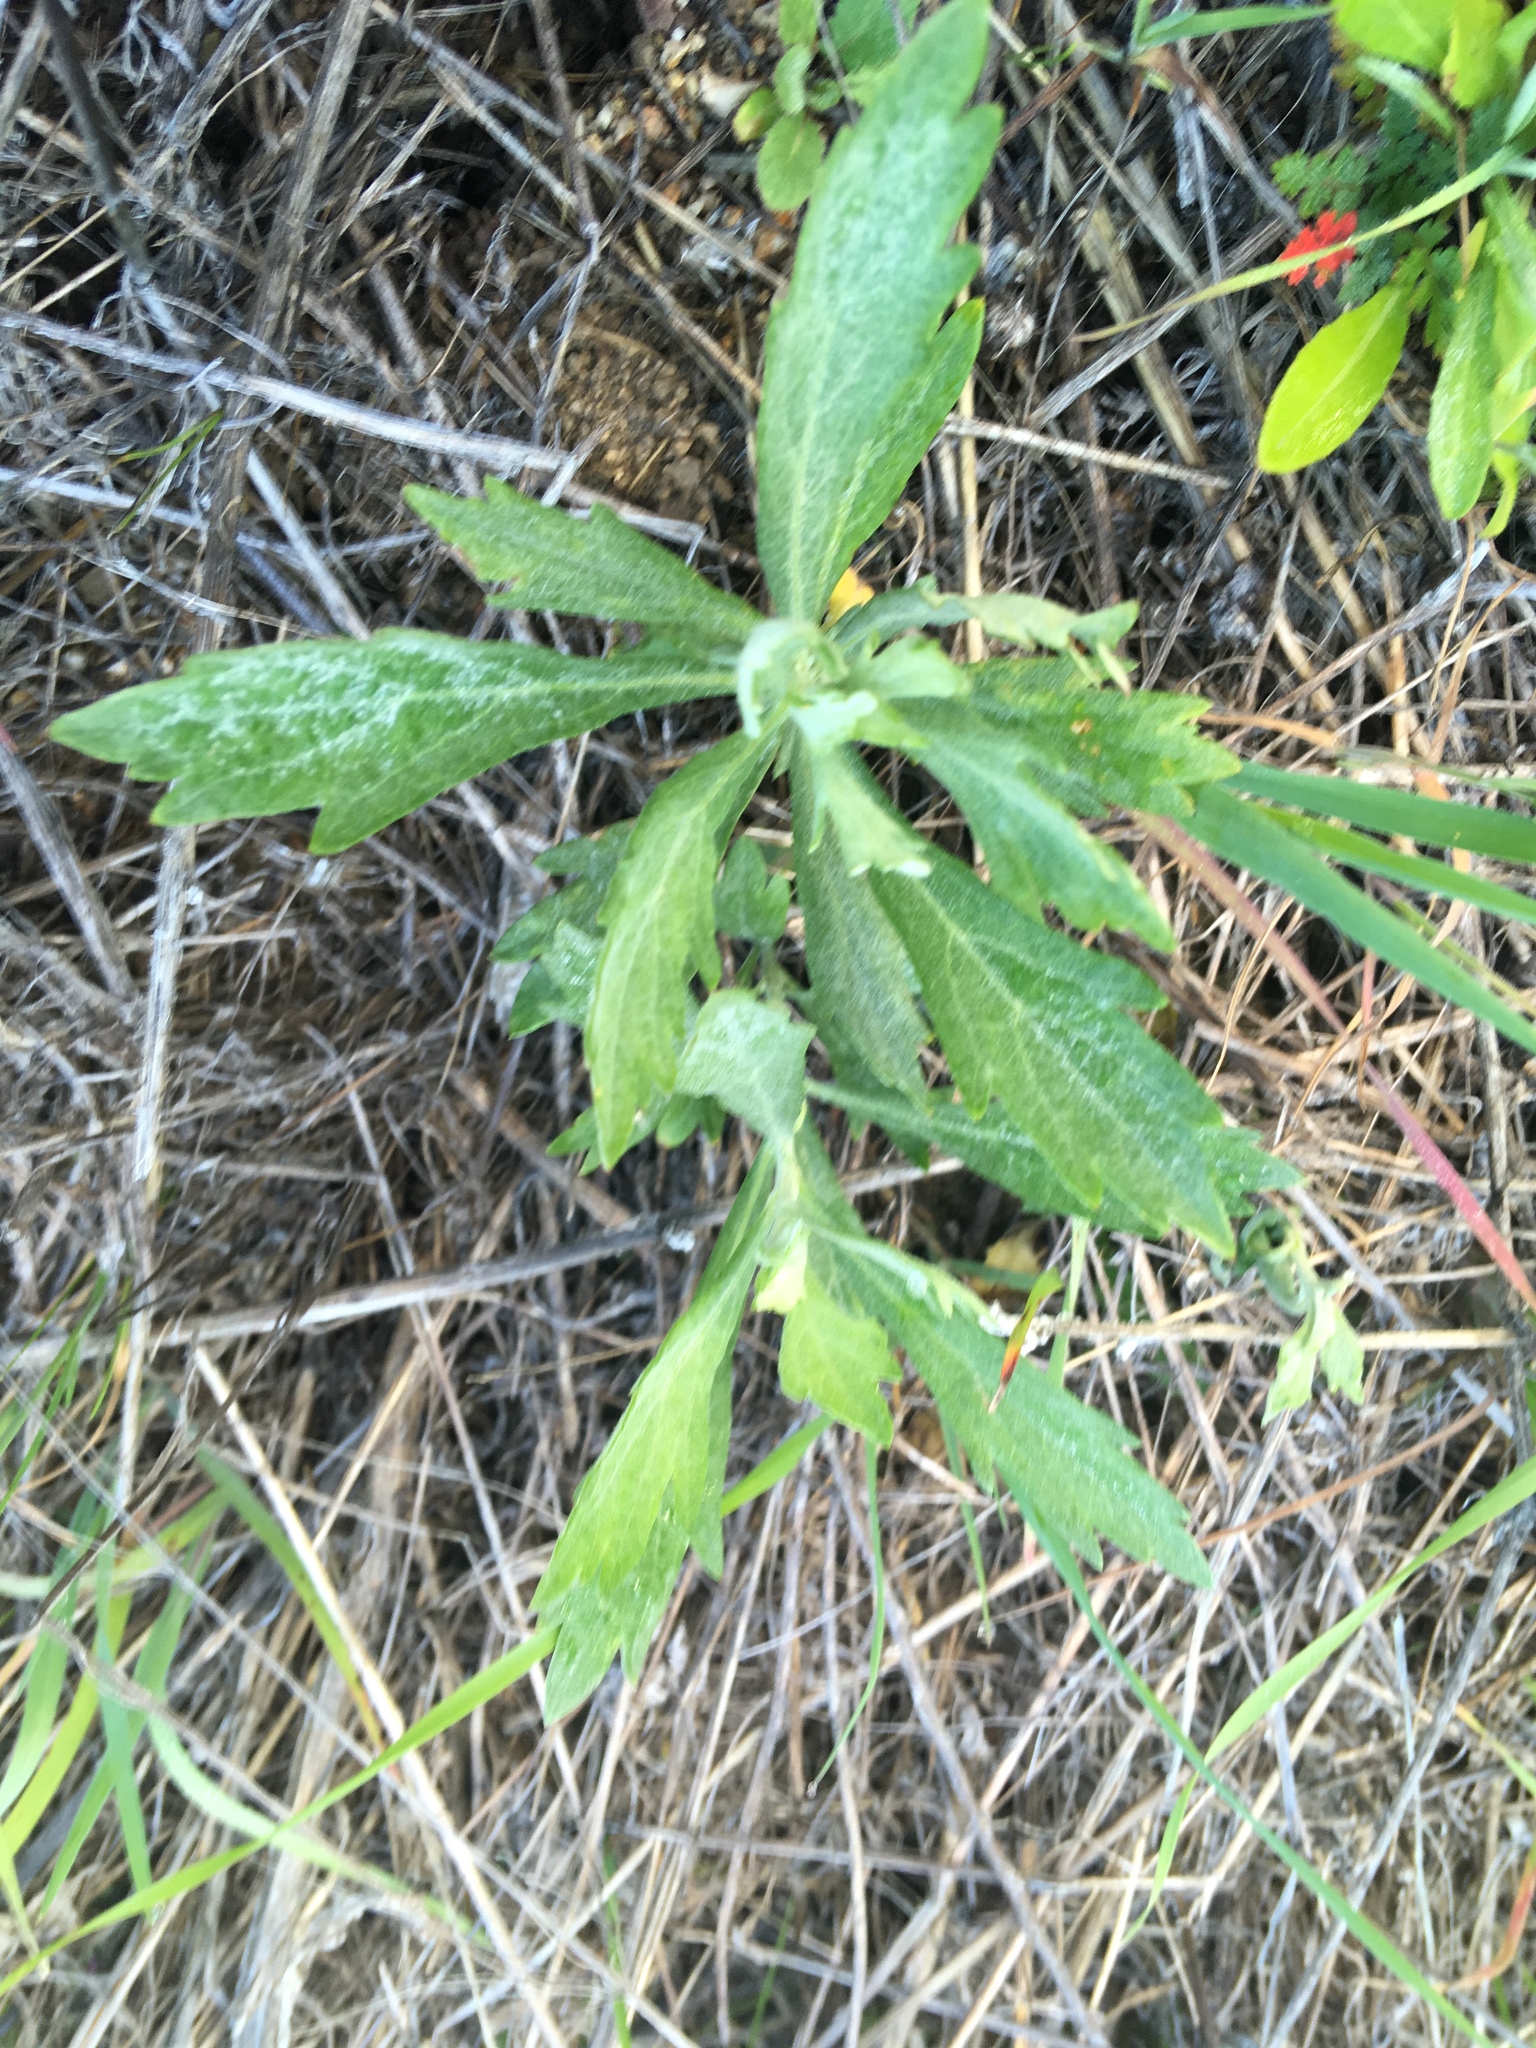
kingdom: Plantae
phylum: Tracheophyta
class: Magnoliopsida
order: Asterales
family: Asteraceae
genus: Artemisia
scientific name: Artemisia douglasiana
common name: Northwest mugwort
